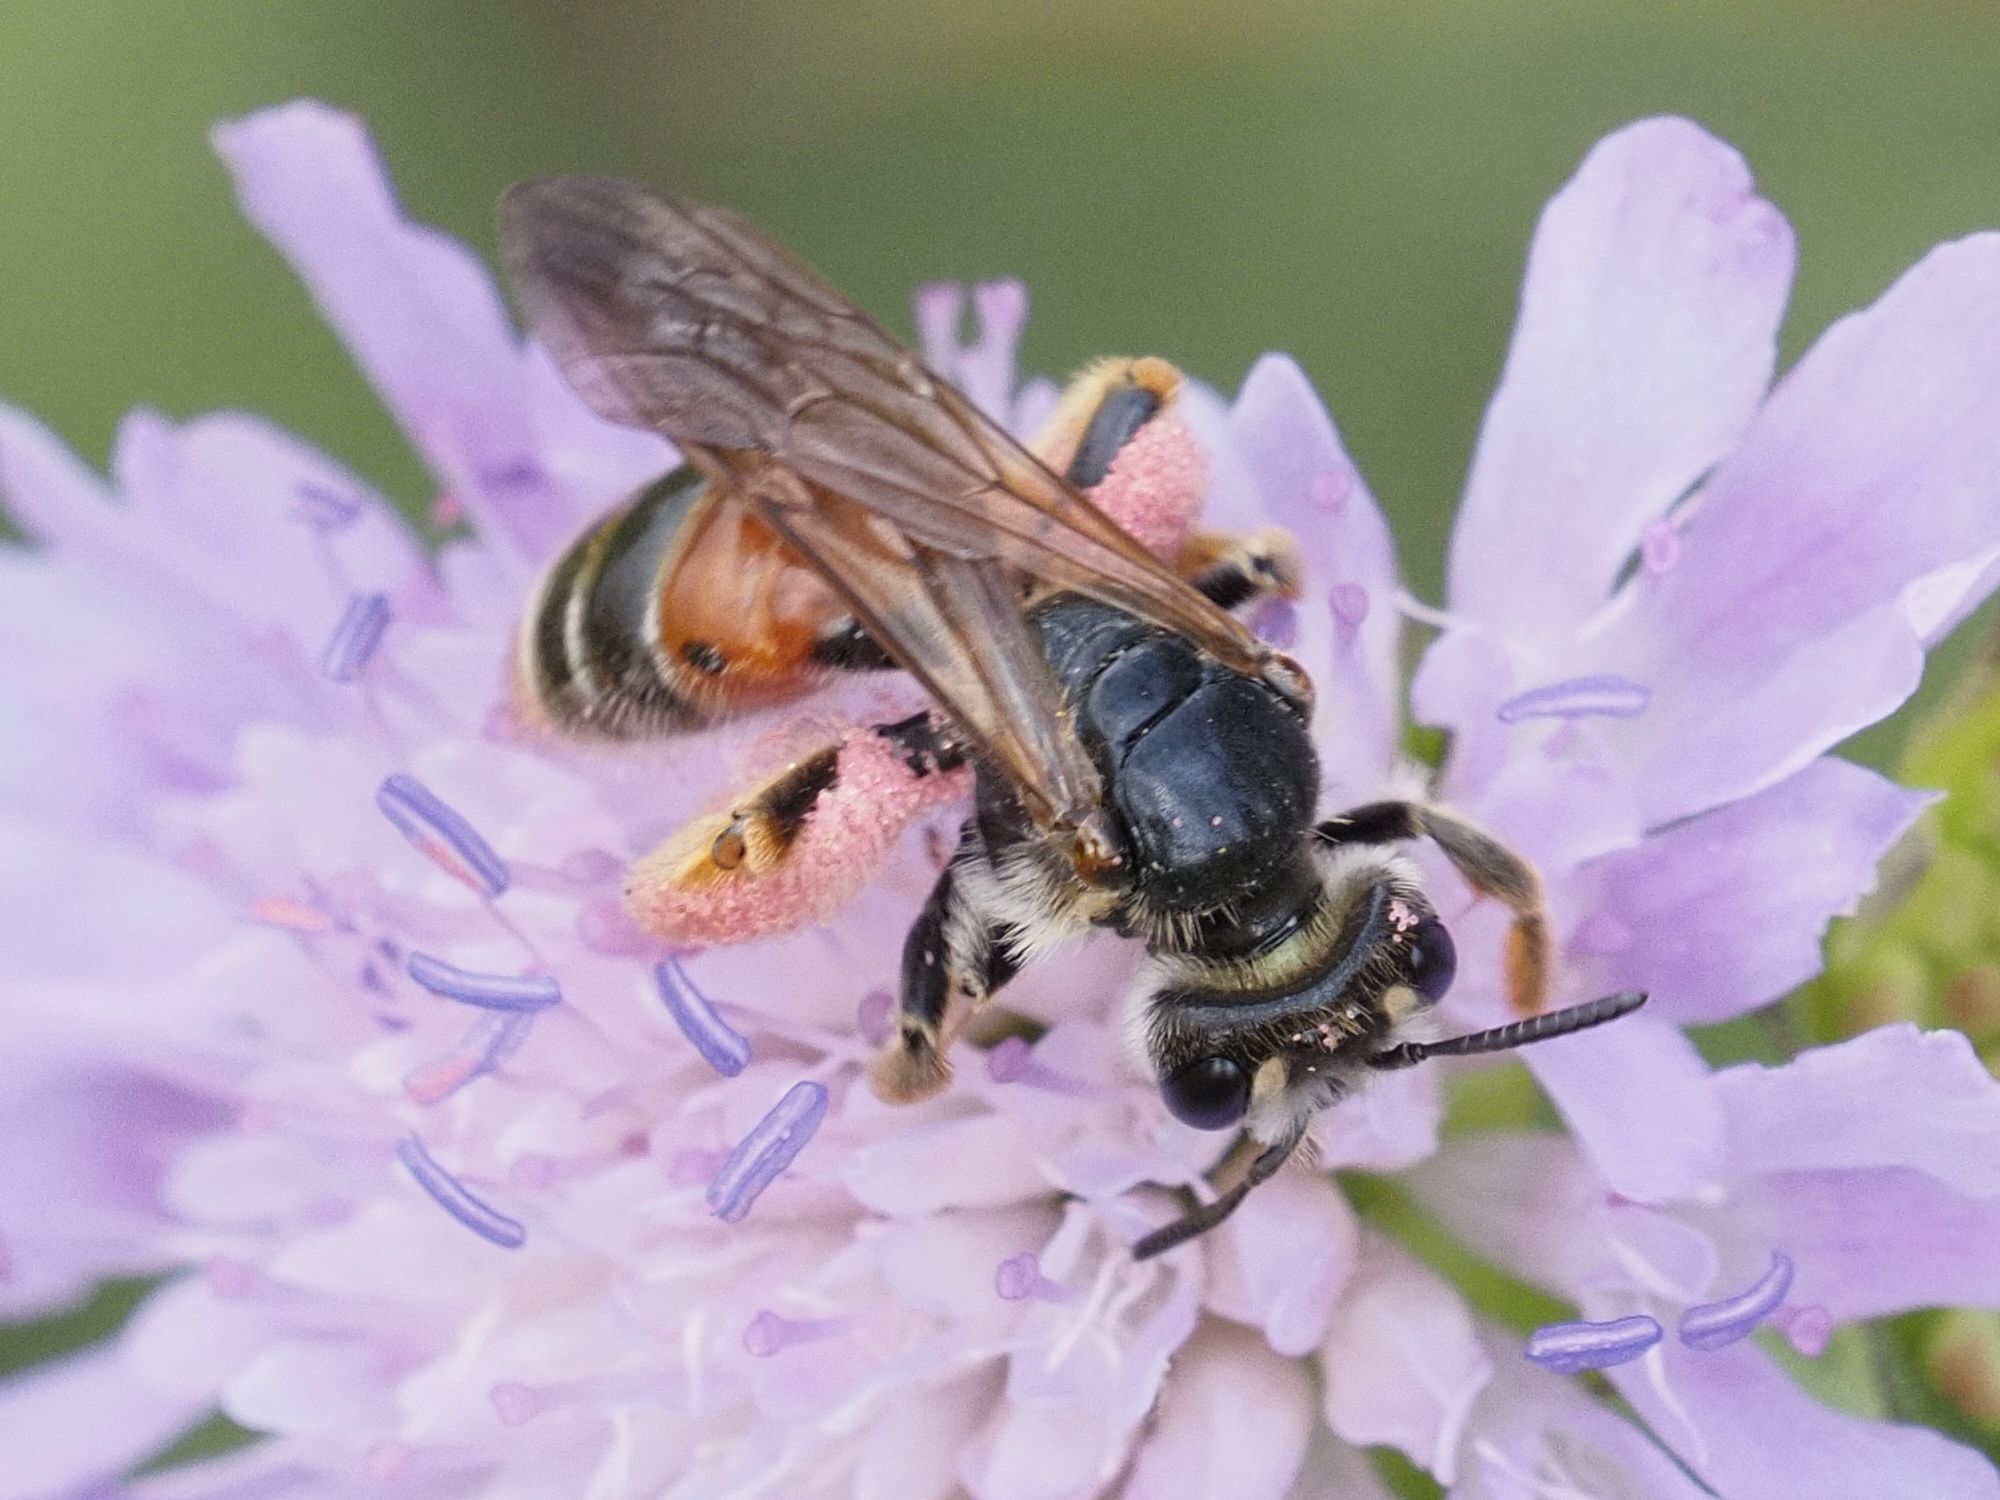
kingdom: Animalia
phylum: Arthropoda
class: Insecta
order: Hymenoptera
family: Andrenidae
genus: Andrena
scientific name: Andrena hattorfiana
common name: Large scabious mining bee
